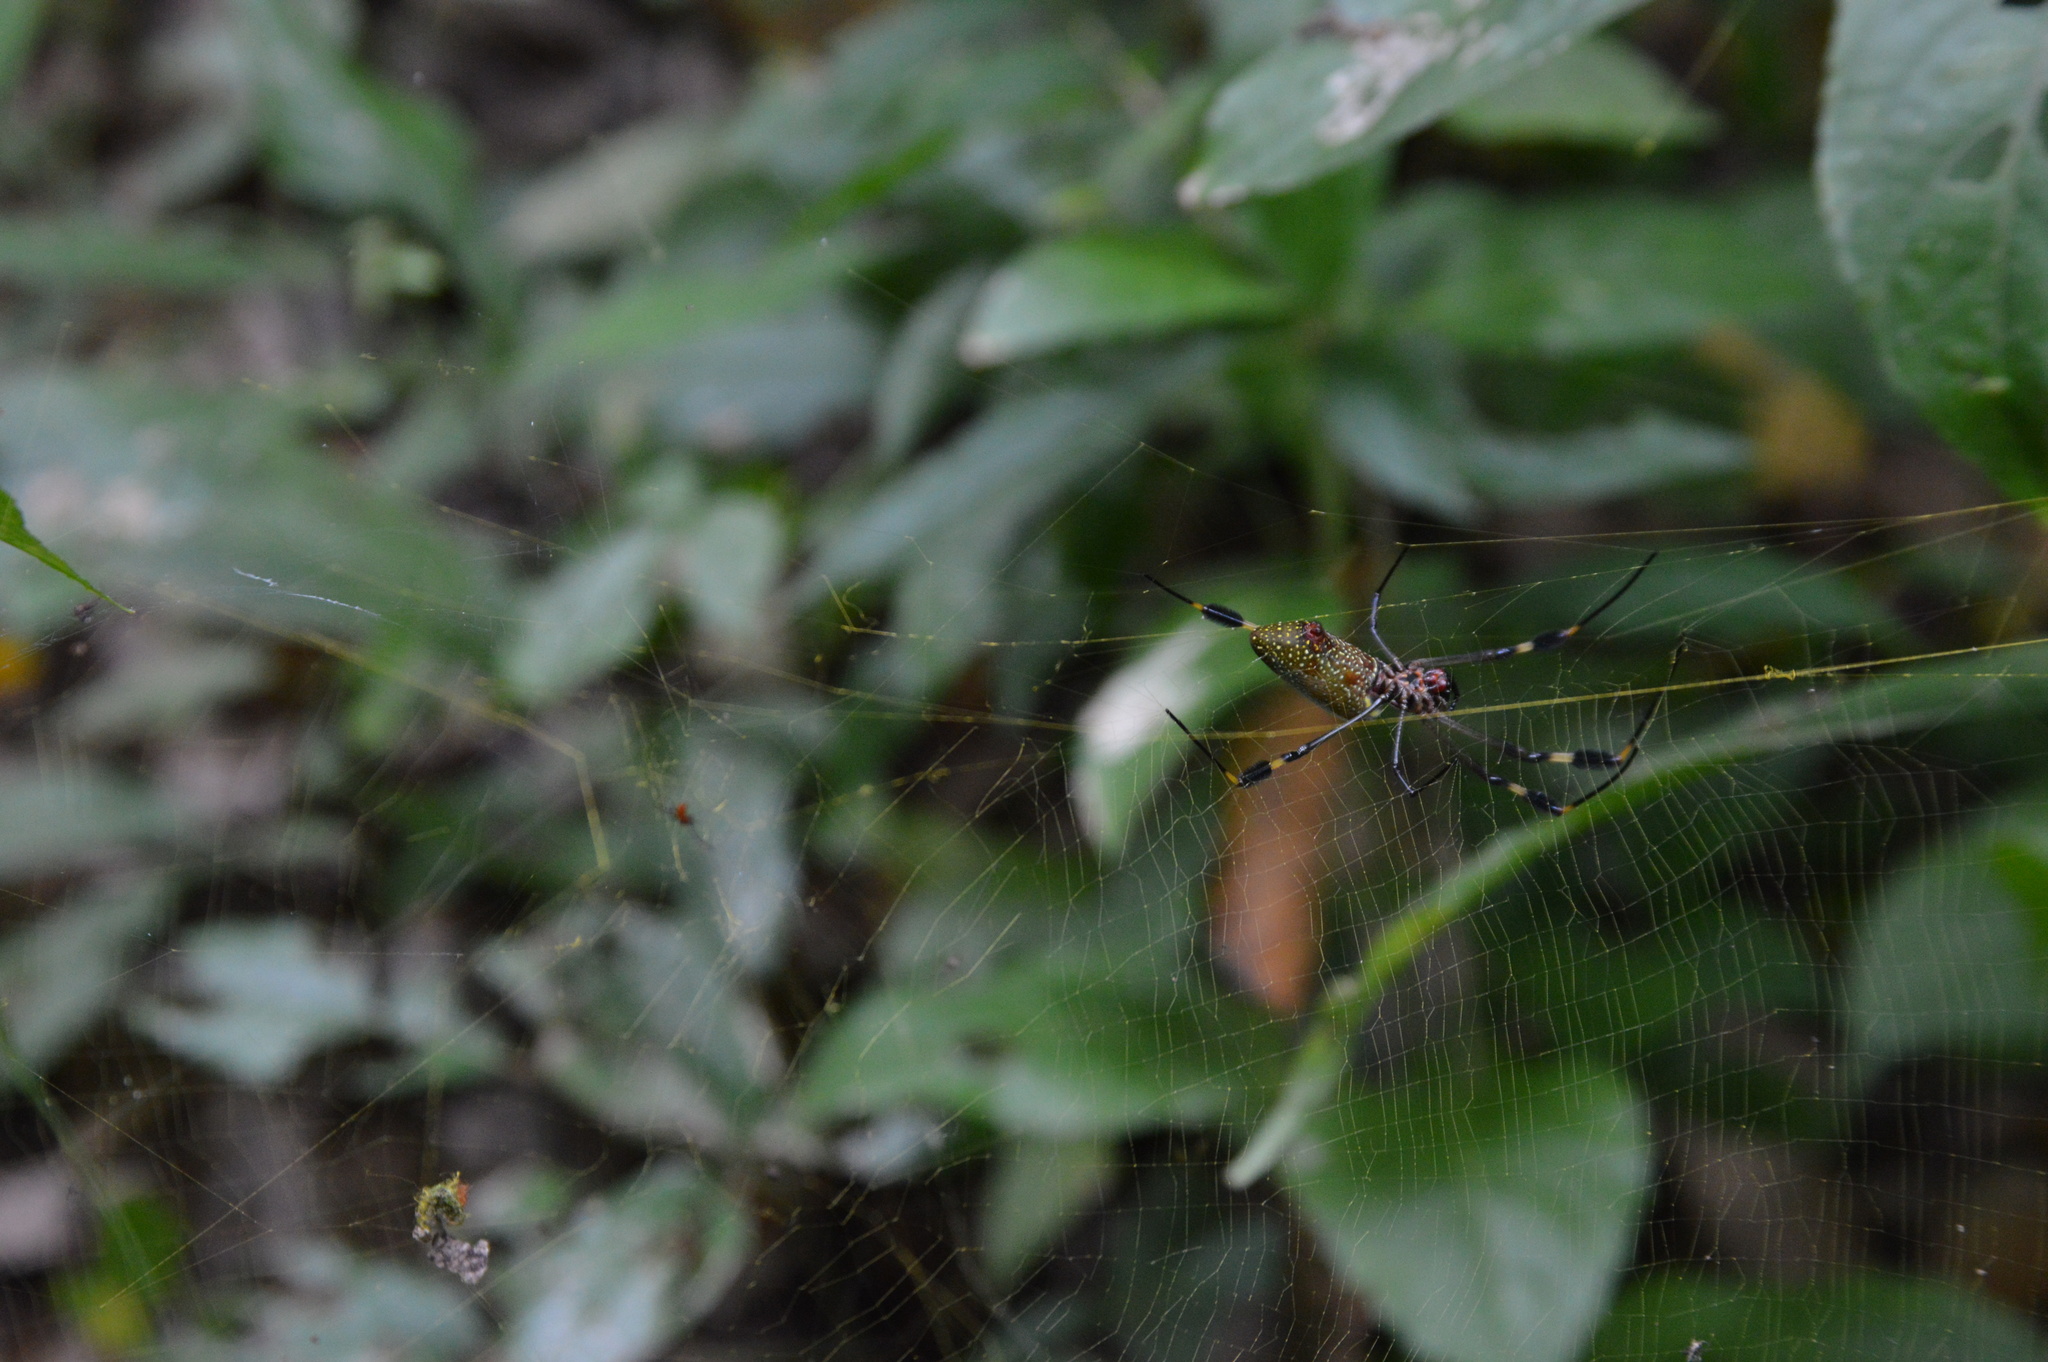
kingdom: Animalia
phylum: Arthropoda
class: Arachnida
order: Araneae
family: Araneidae
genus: Trichonephila
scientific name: Trichonephila clavipes
